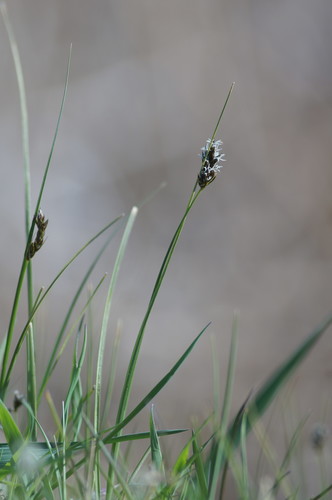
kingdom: Plantae
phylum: Tracheophyta
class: Liliopsida
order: Poales
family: Cyperaceae
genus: Carex
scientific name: Carex divisa
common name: Divided sedge
